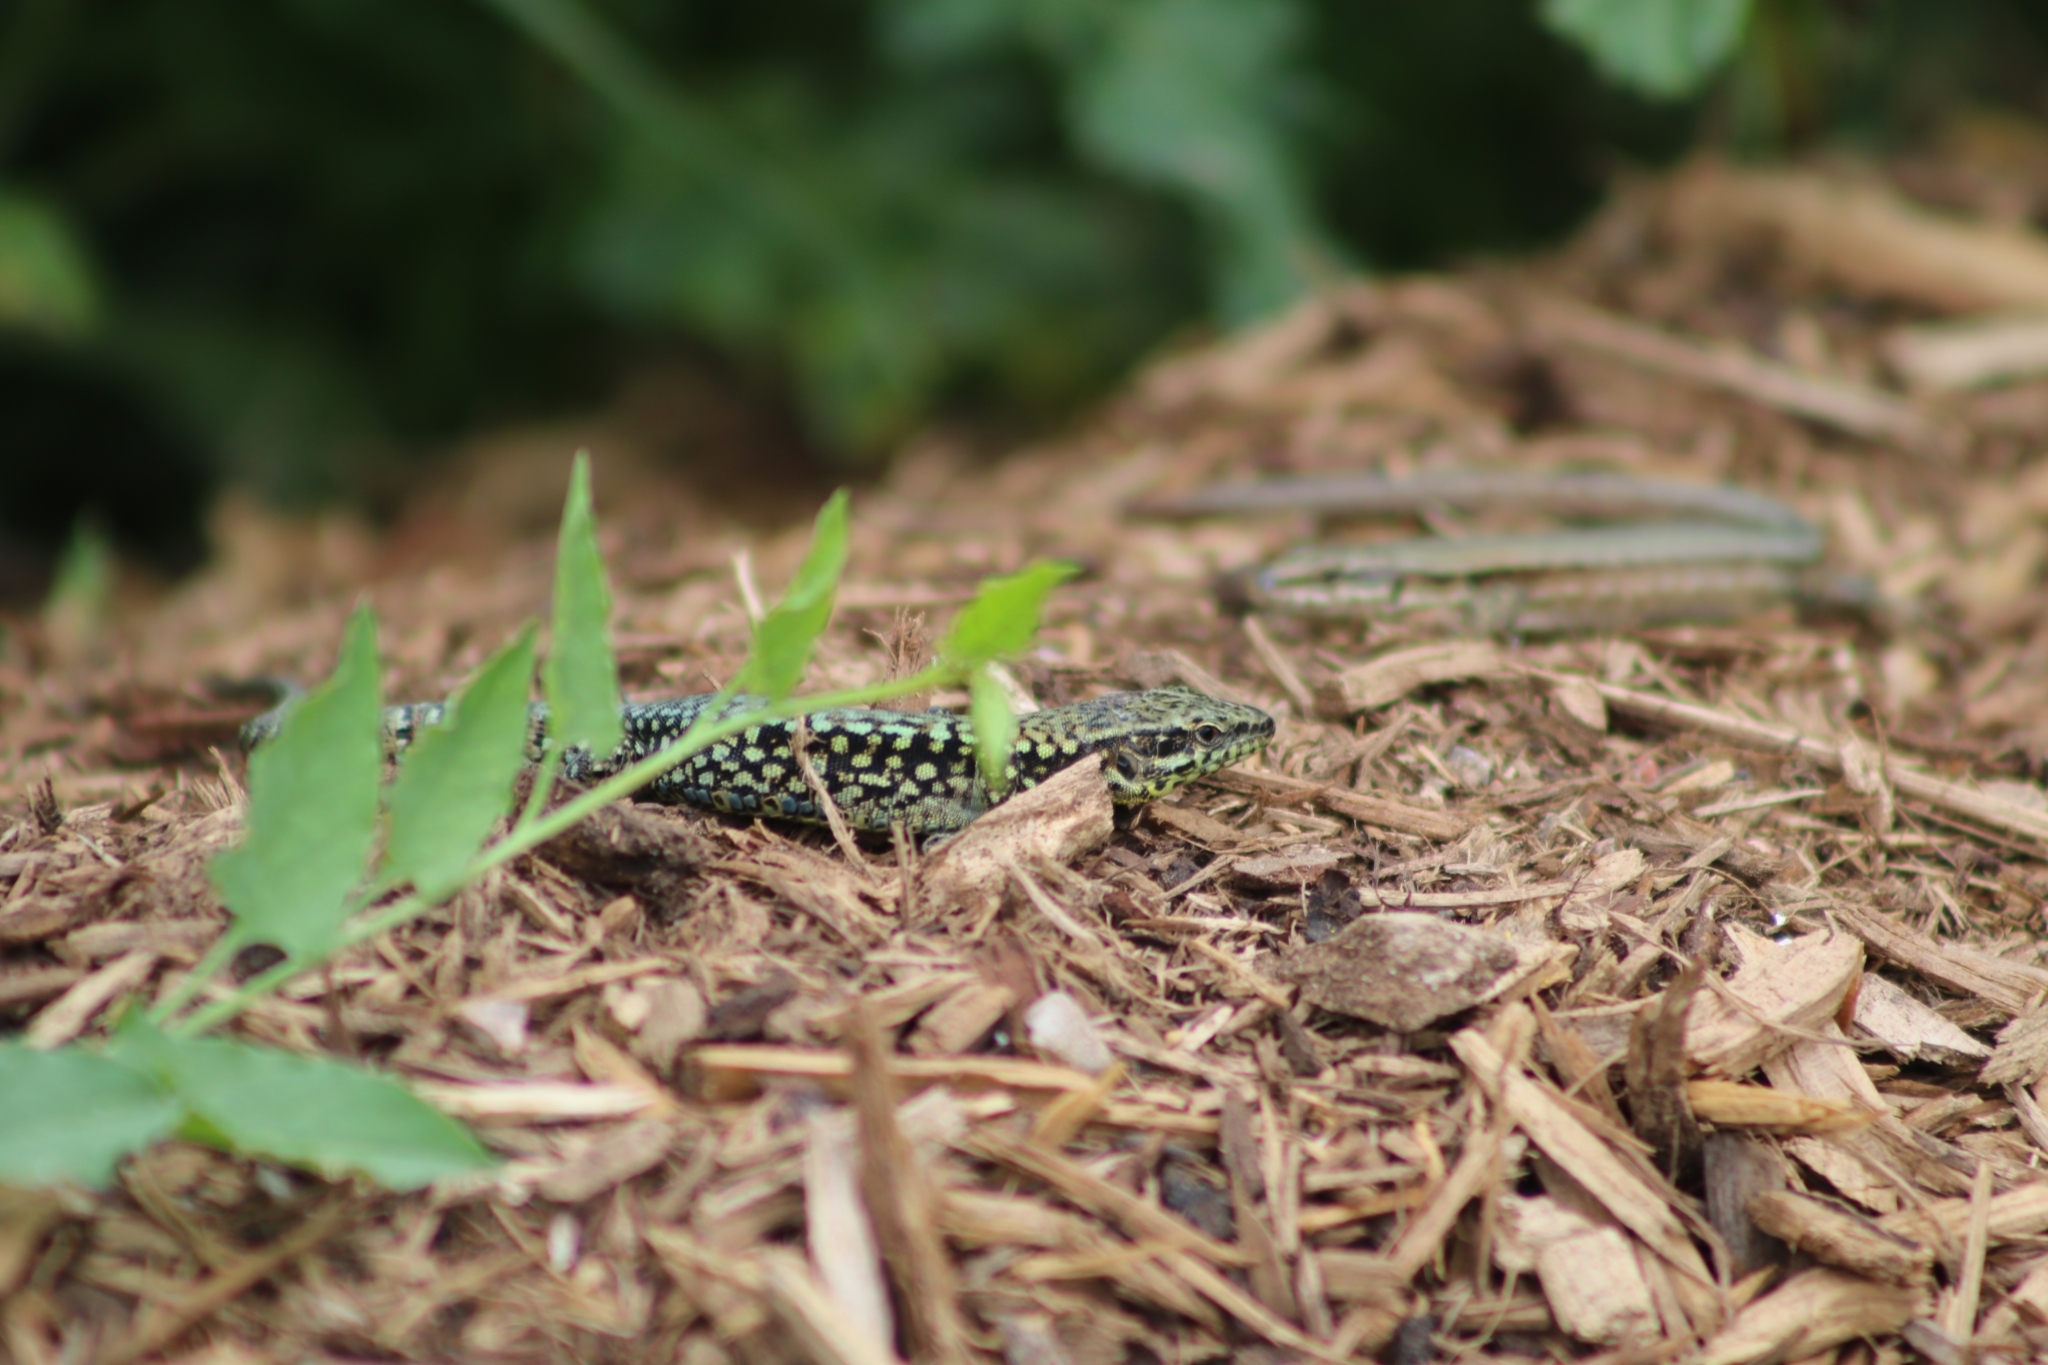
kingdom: Animalia
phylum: Chordata
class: Squamata
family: Lacertidae
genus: Podarcis
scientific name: Podarcis muralis
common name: Common wall lizard
